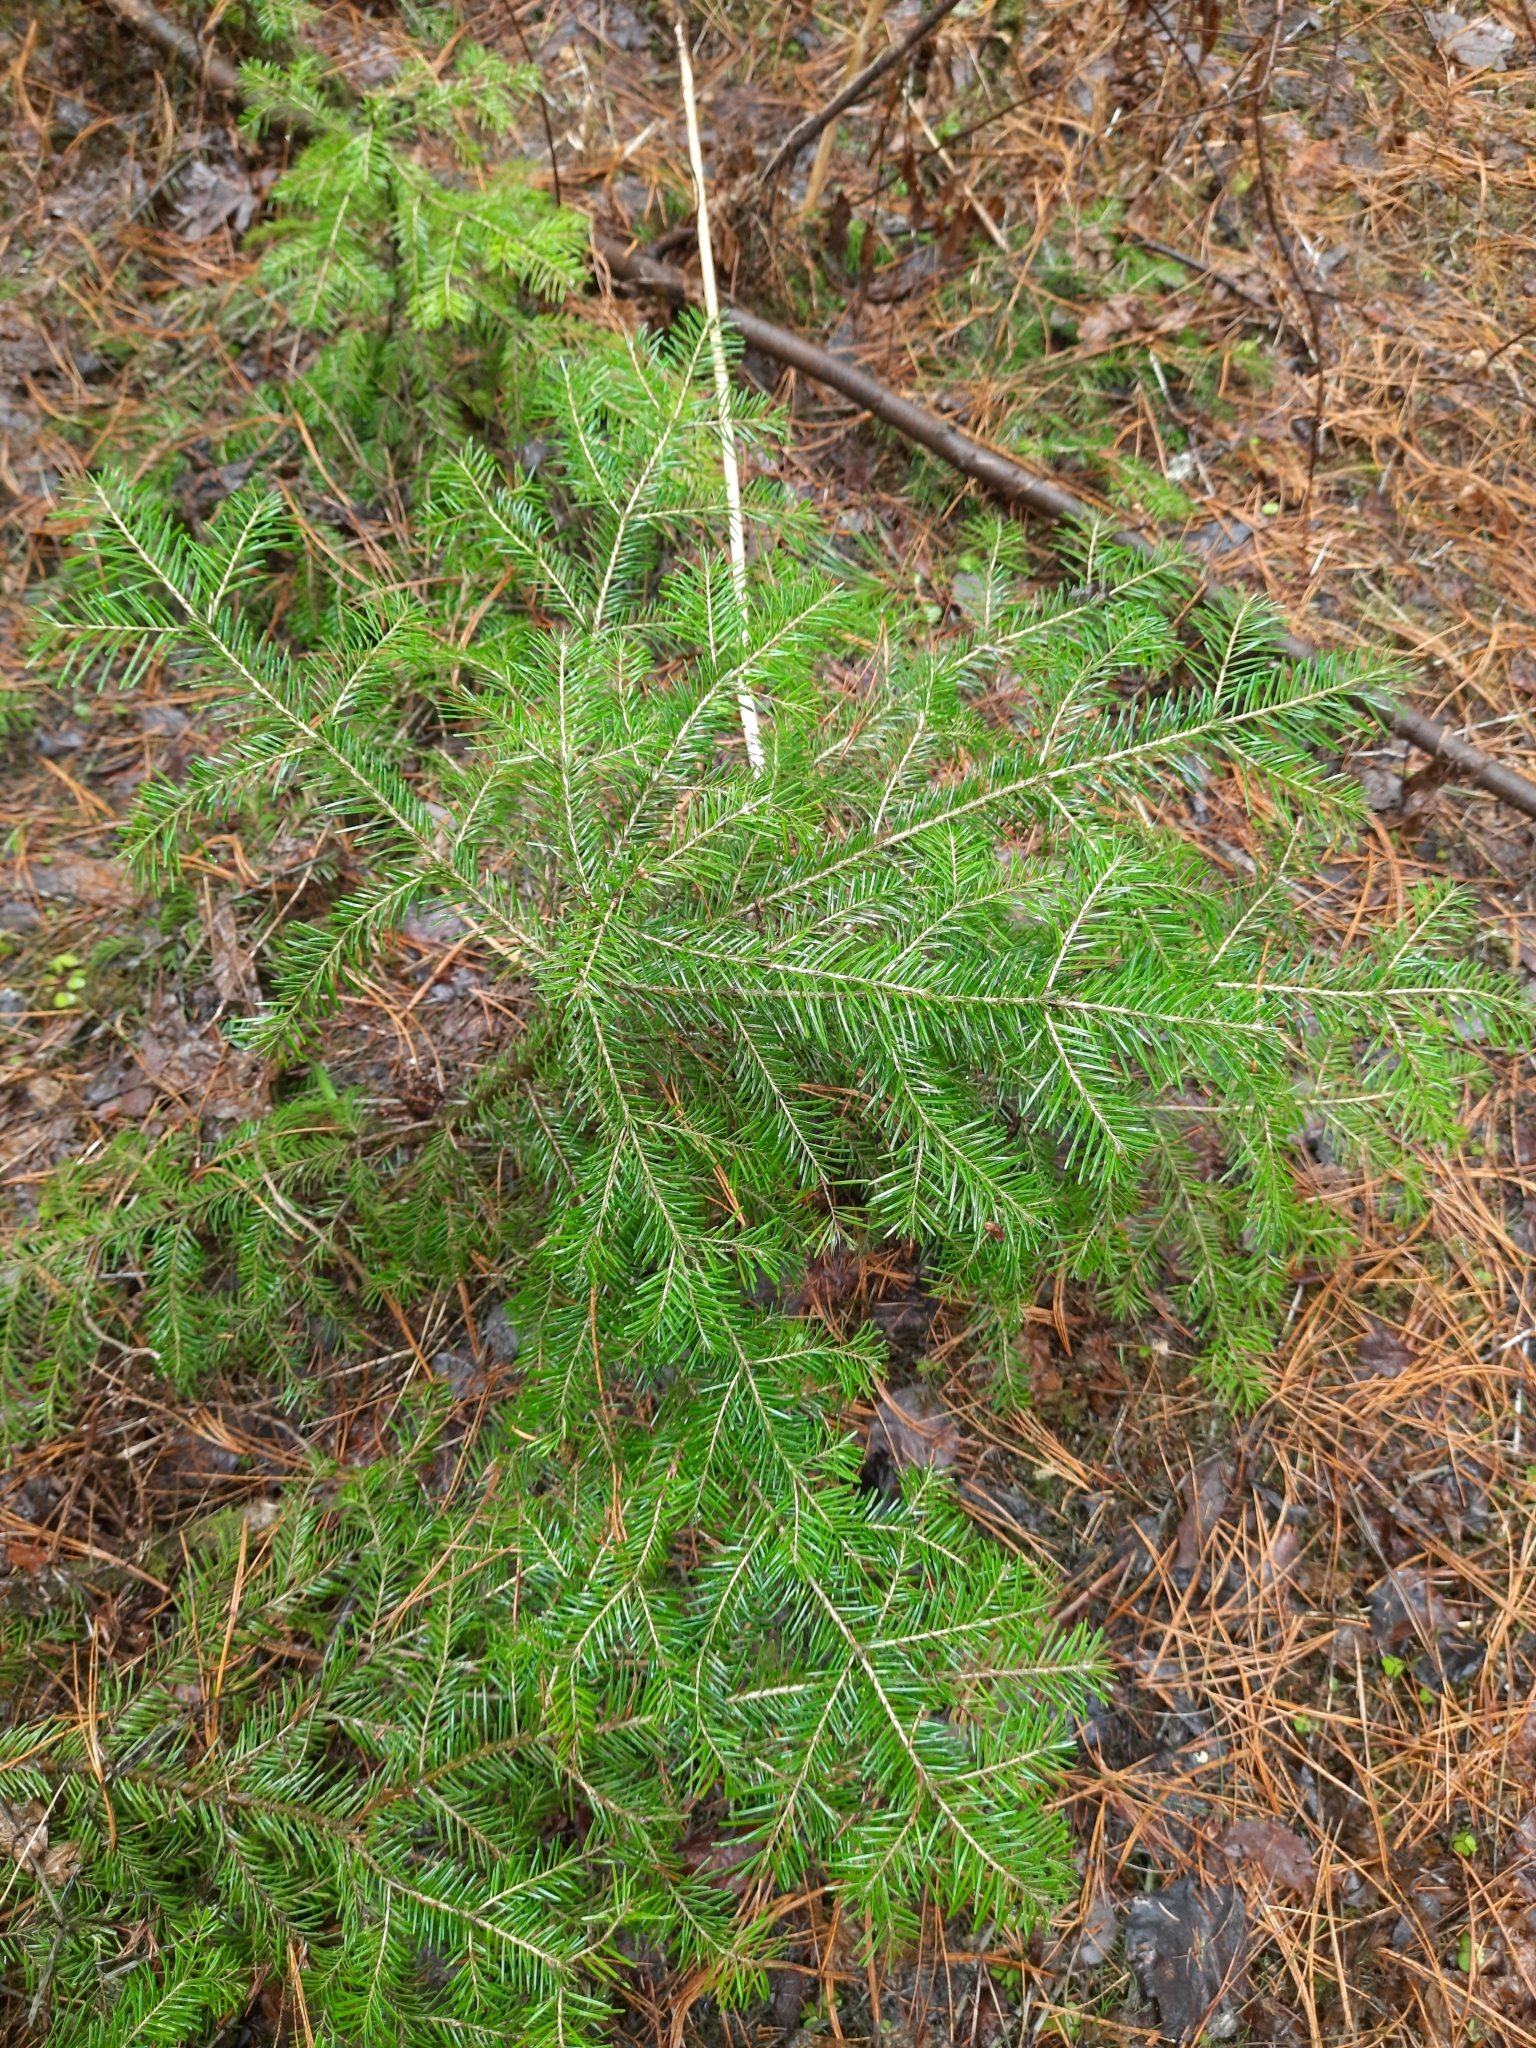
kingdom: Plantae
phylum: Tracheophyta
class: Pinopsida
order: Pinales
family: Pinaceae
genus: Abies
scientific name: Abies sibirica
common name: Siberian fir
